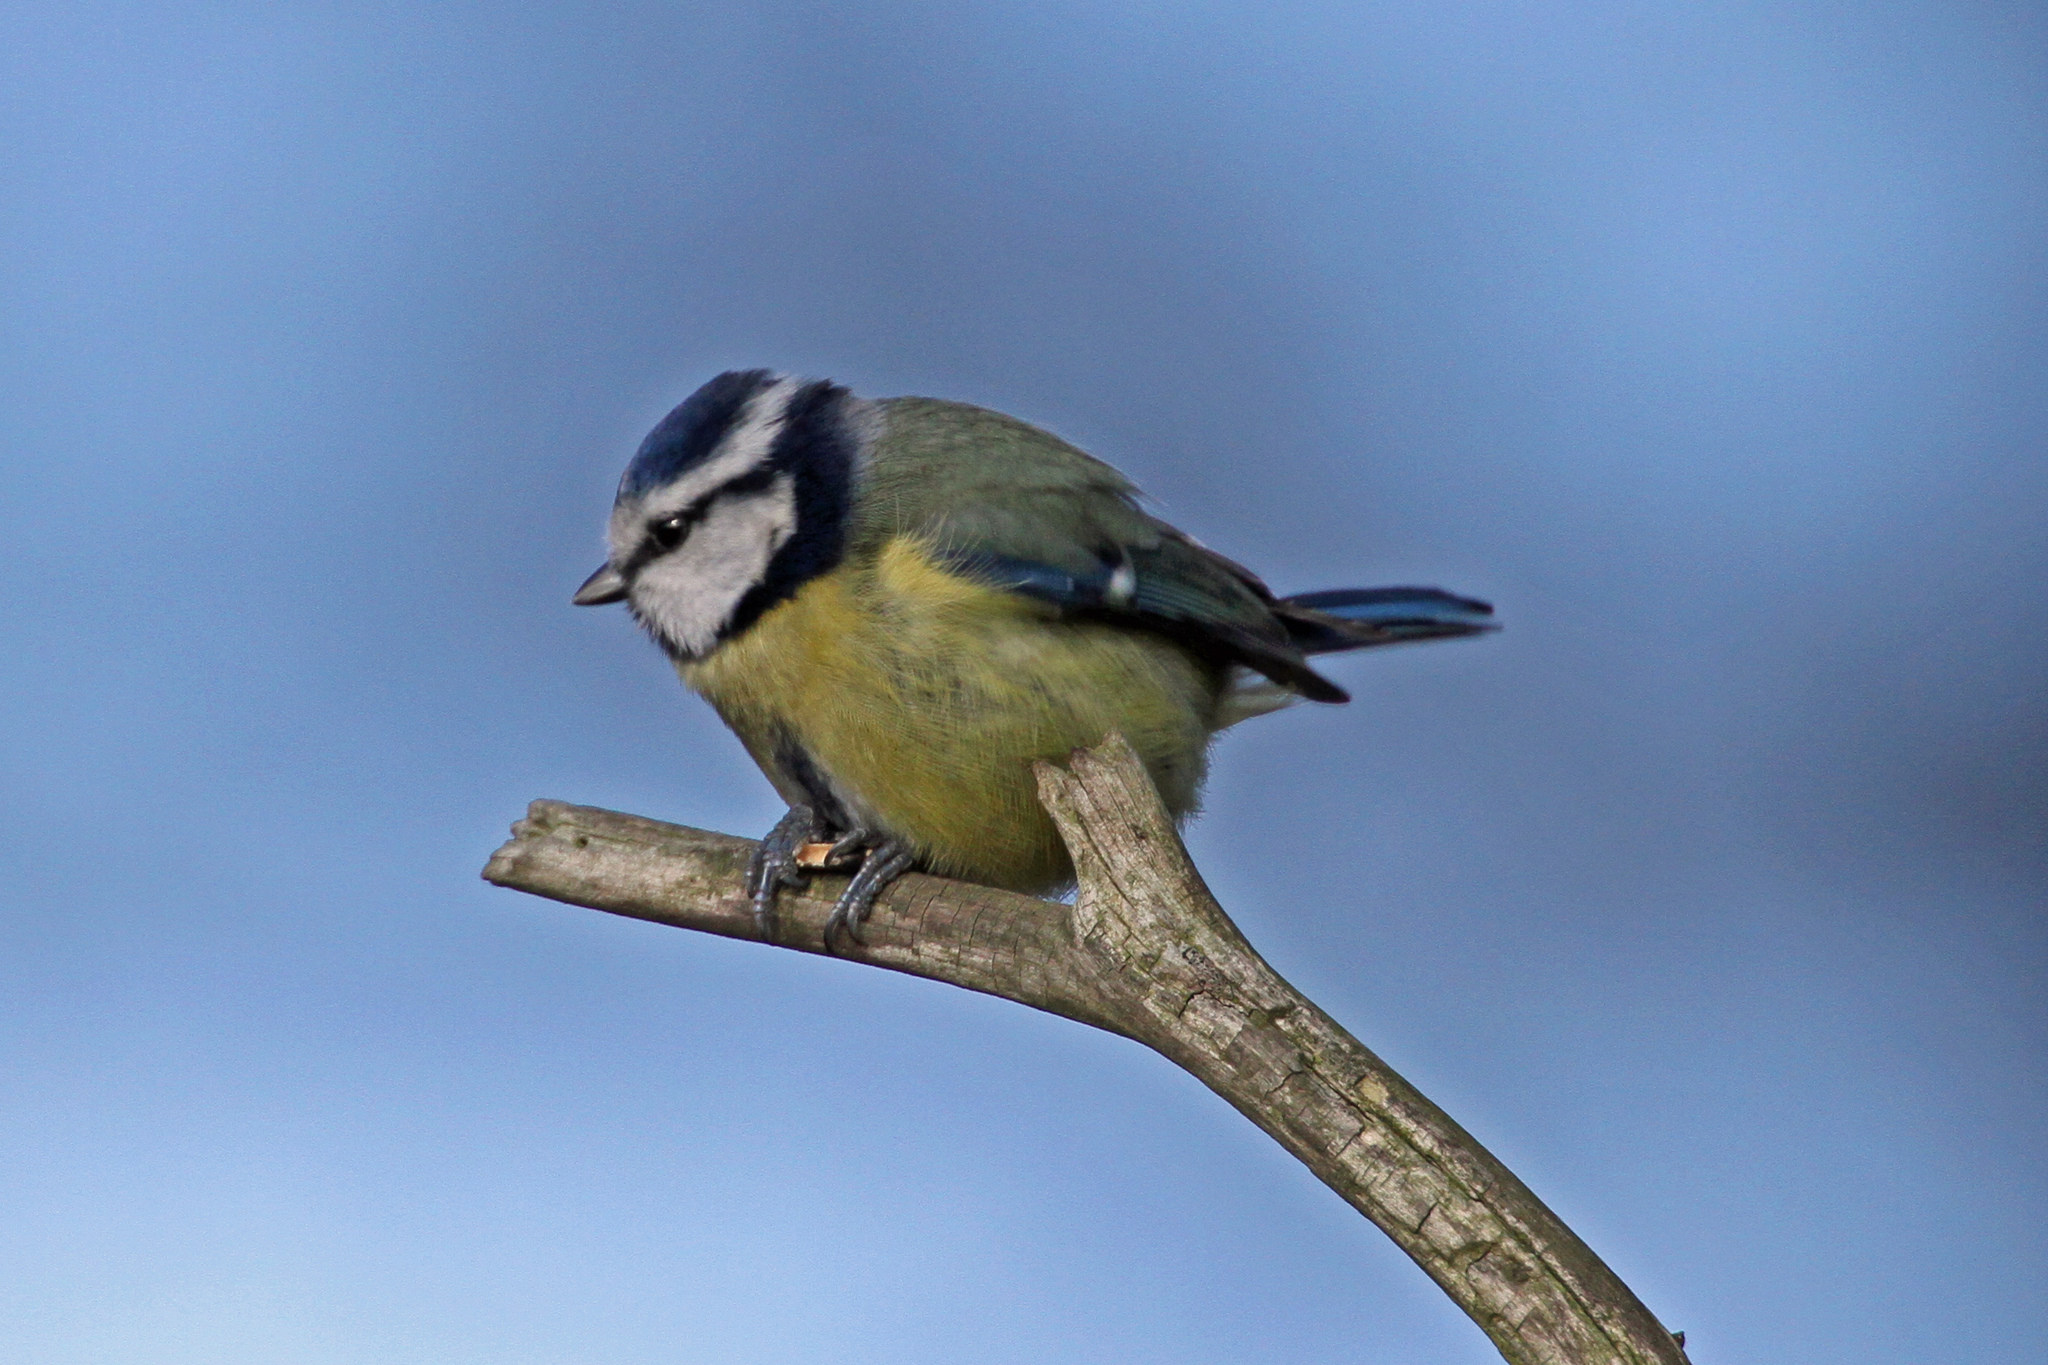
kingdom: Animalia
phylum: Chordata
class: Aves
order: Passeriformes
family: Paridae
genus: Cyanistes
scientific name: Cyanistes caeruleus
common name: Eurasian blue tit
